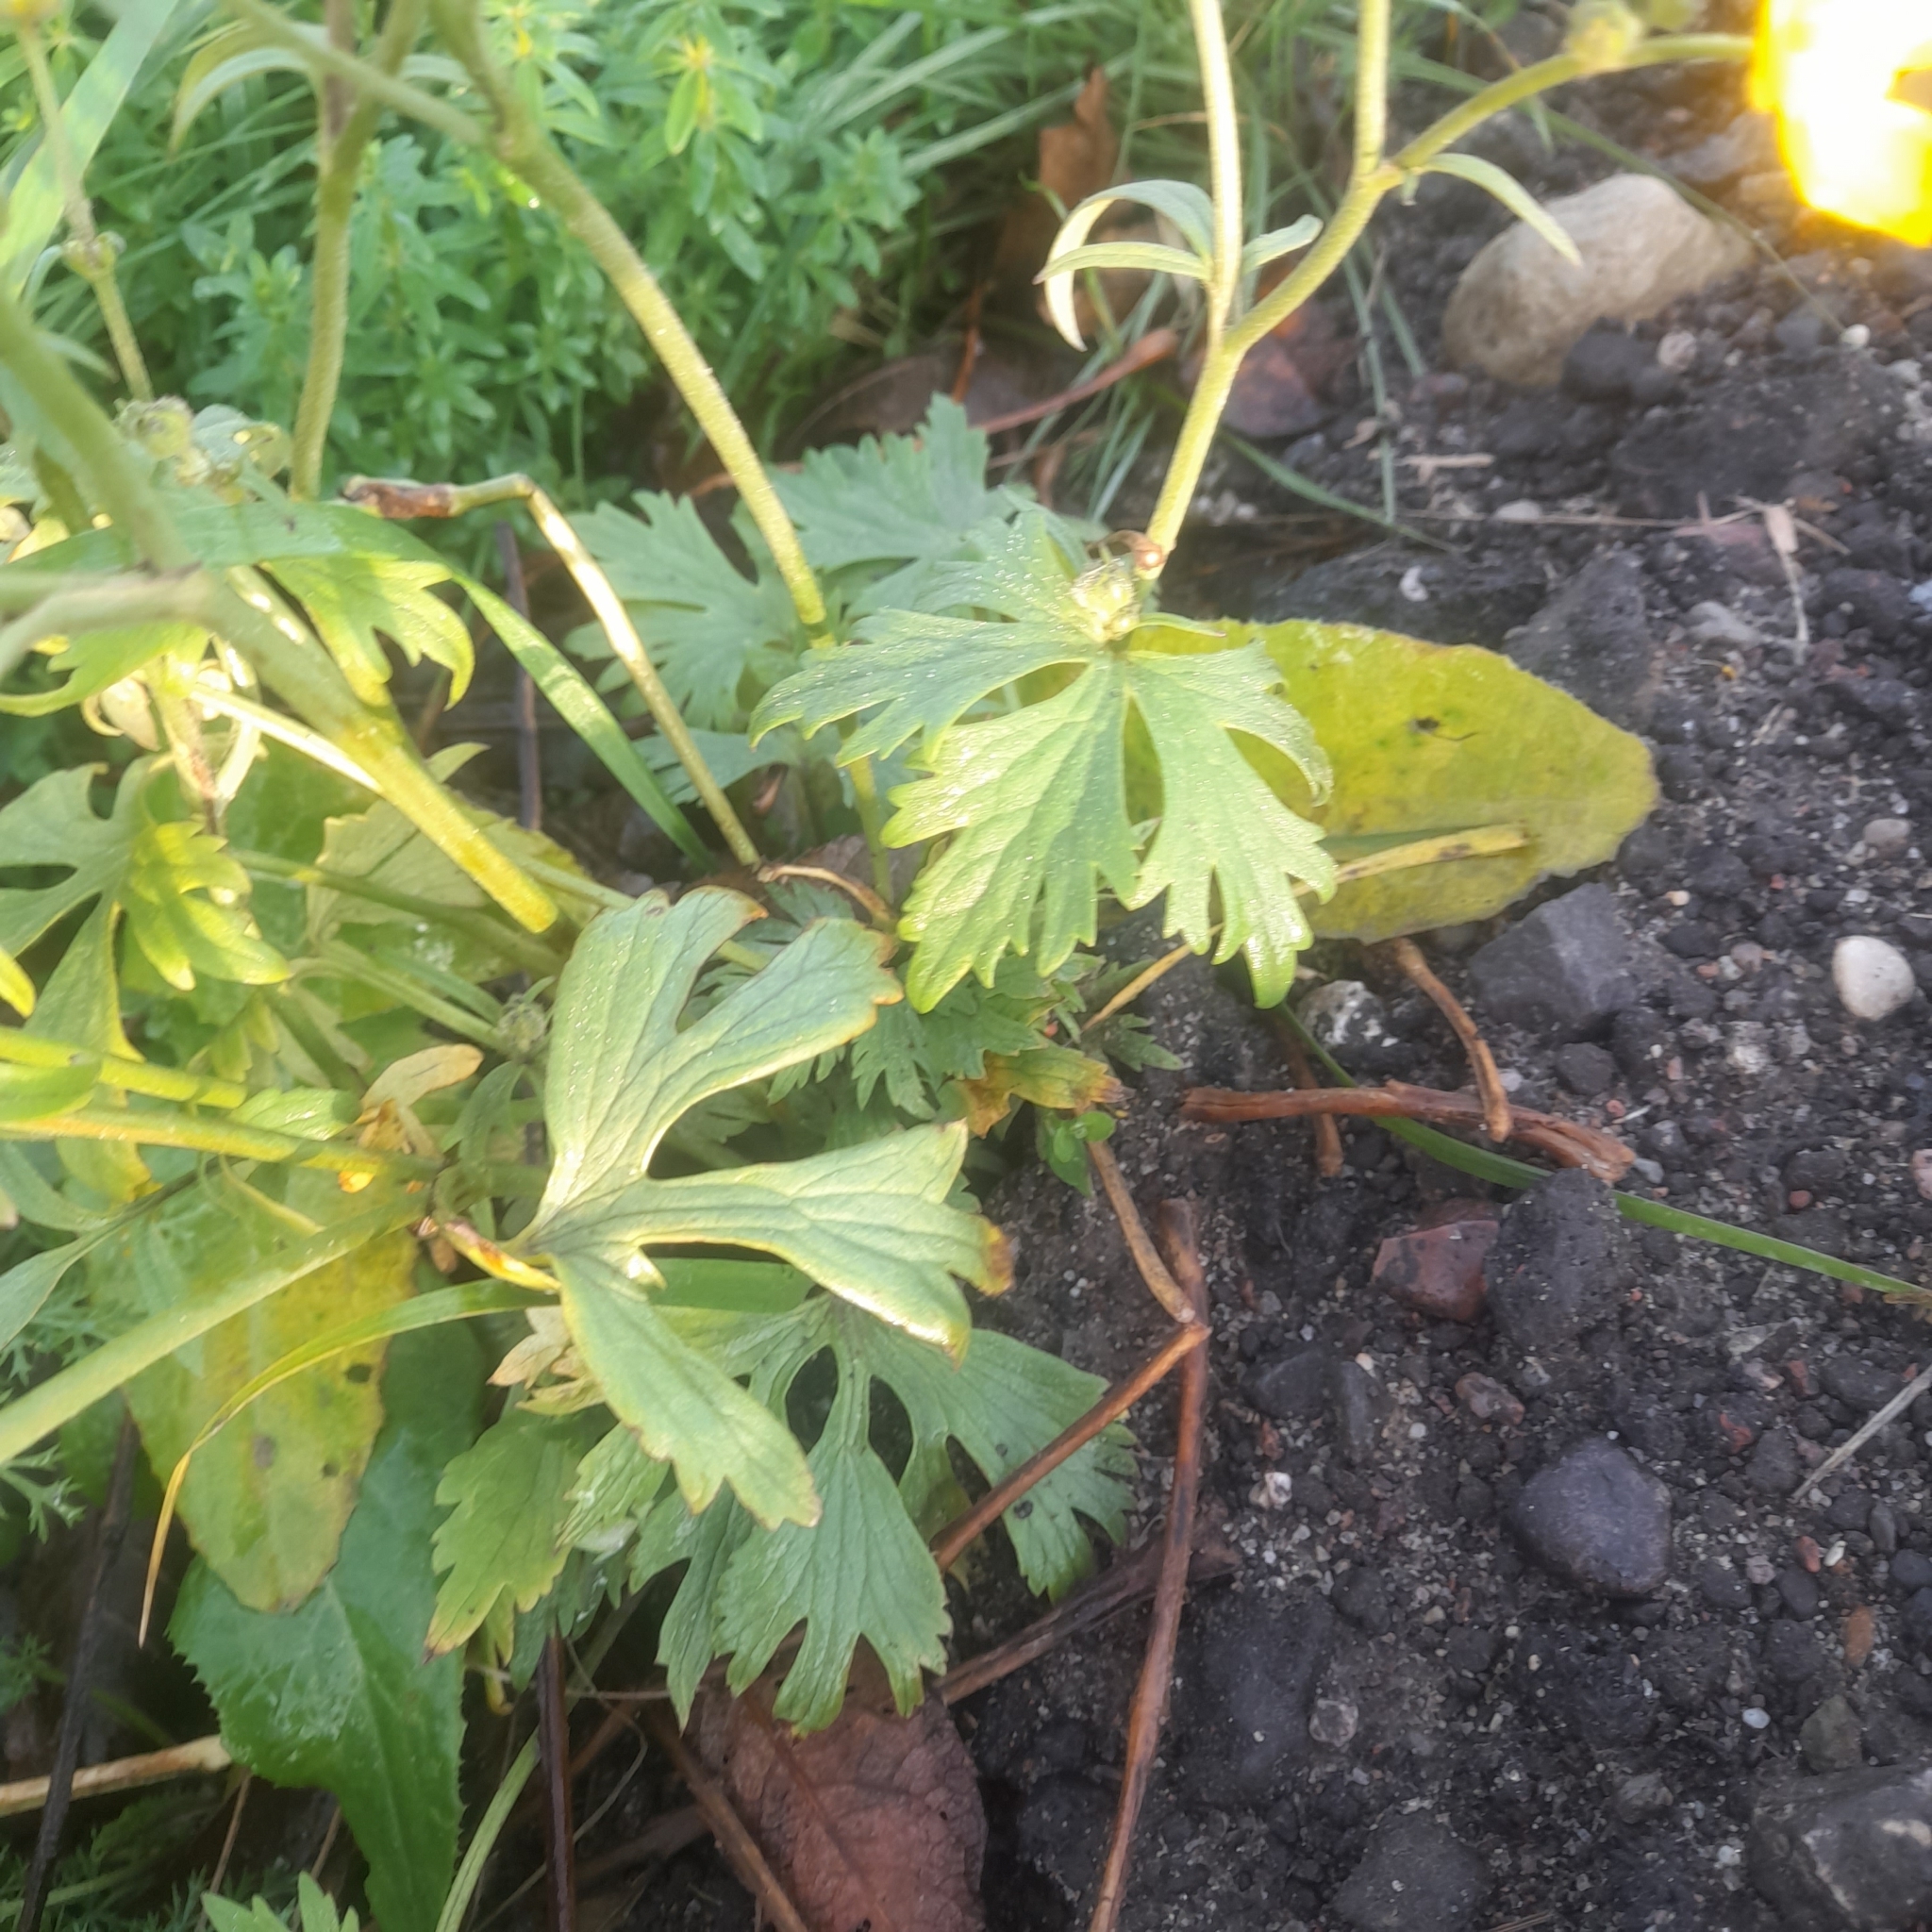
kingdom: Plantae
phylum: Tracheophyta
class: Magnoliopsida
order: Ranunculales
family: Ranunculaceae
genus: Ranunculus
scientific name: Ranunculus acris
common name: Meadow buttercup
